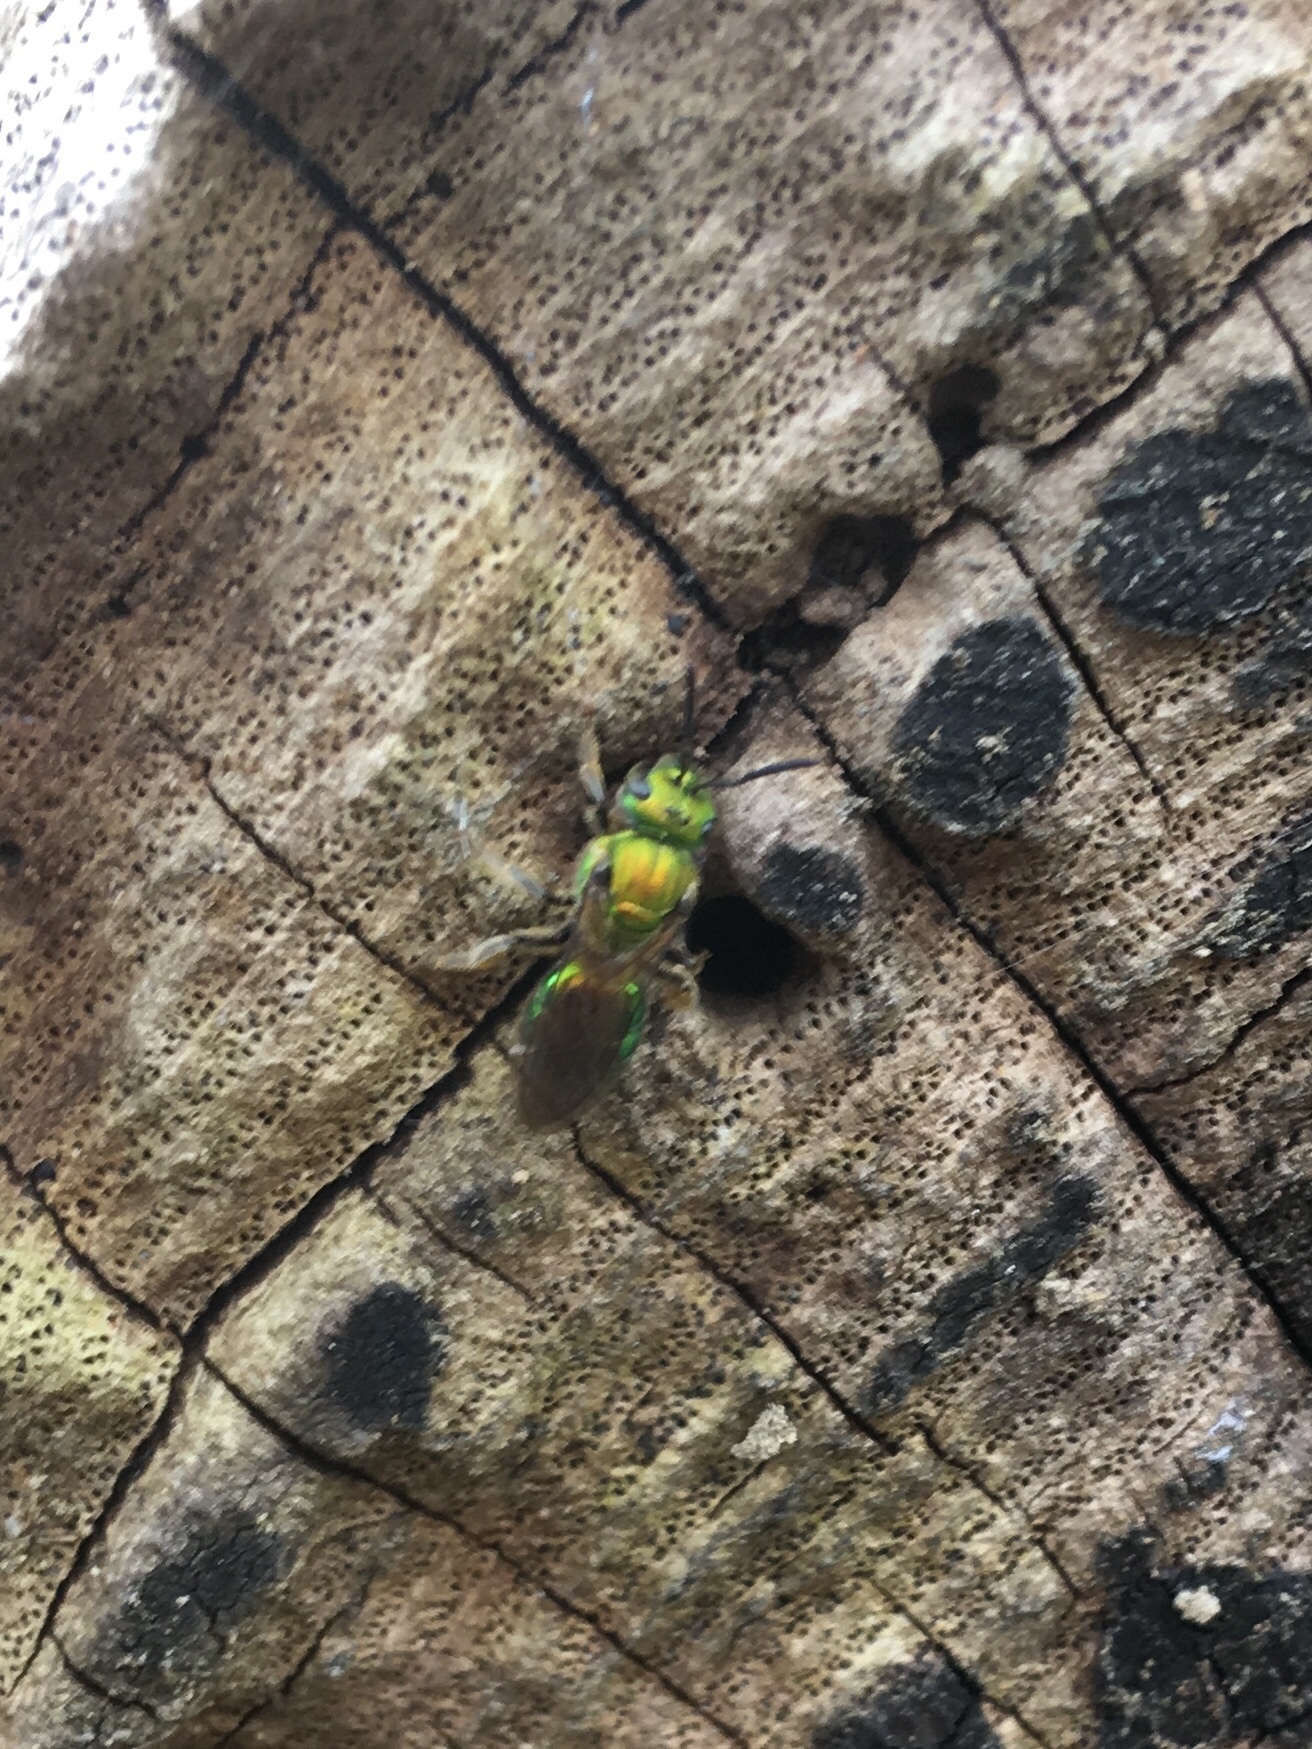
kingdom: Animalia
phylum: Arthropoda
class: Insecta
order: Hymenoptera
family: Halictidae
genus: Augochlora
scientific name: Augochlora pura
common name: Pure green sweat bee
